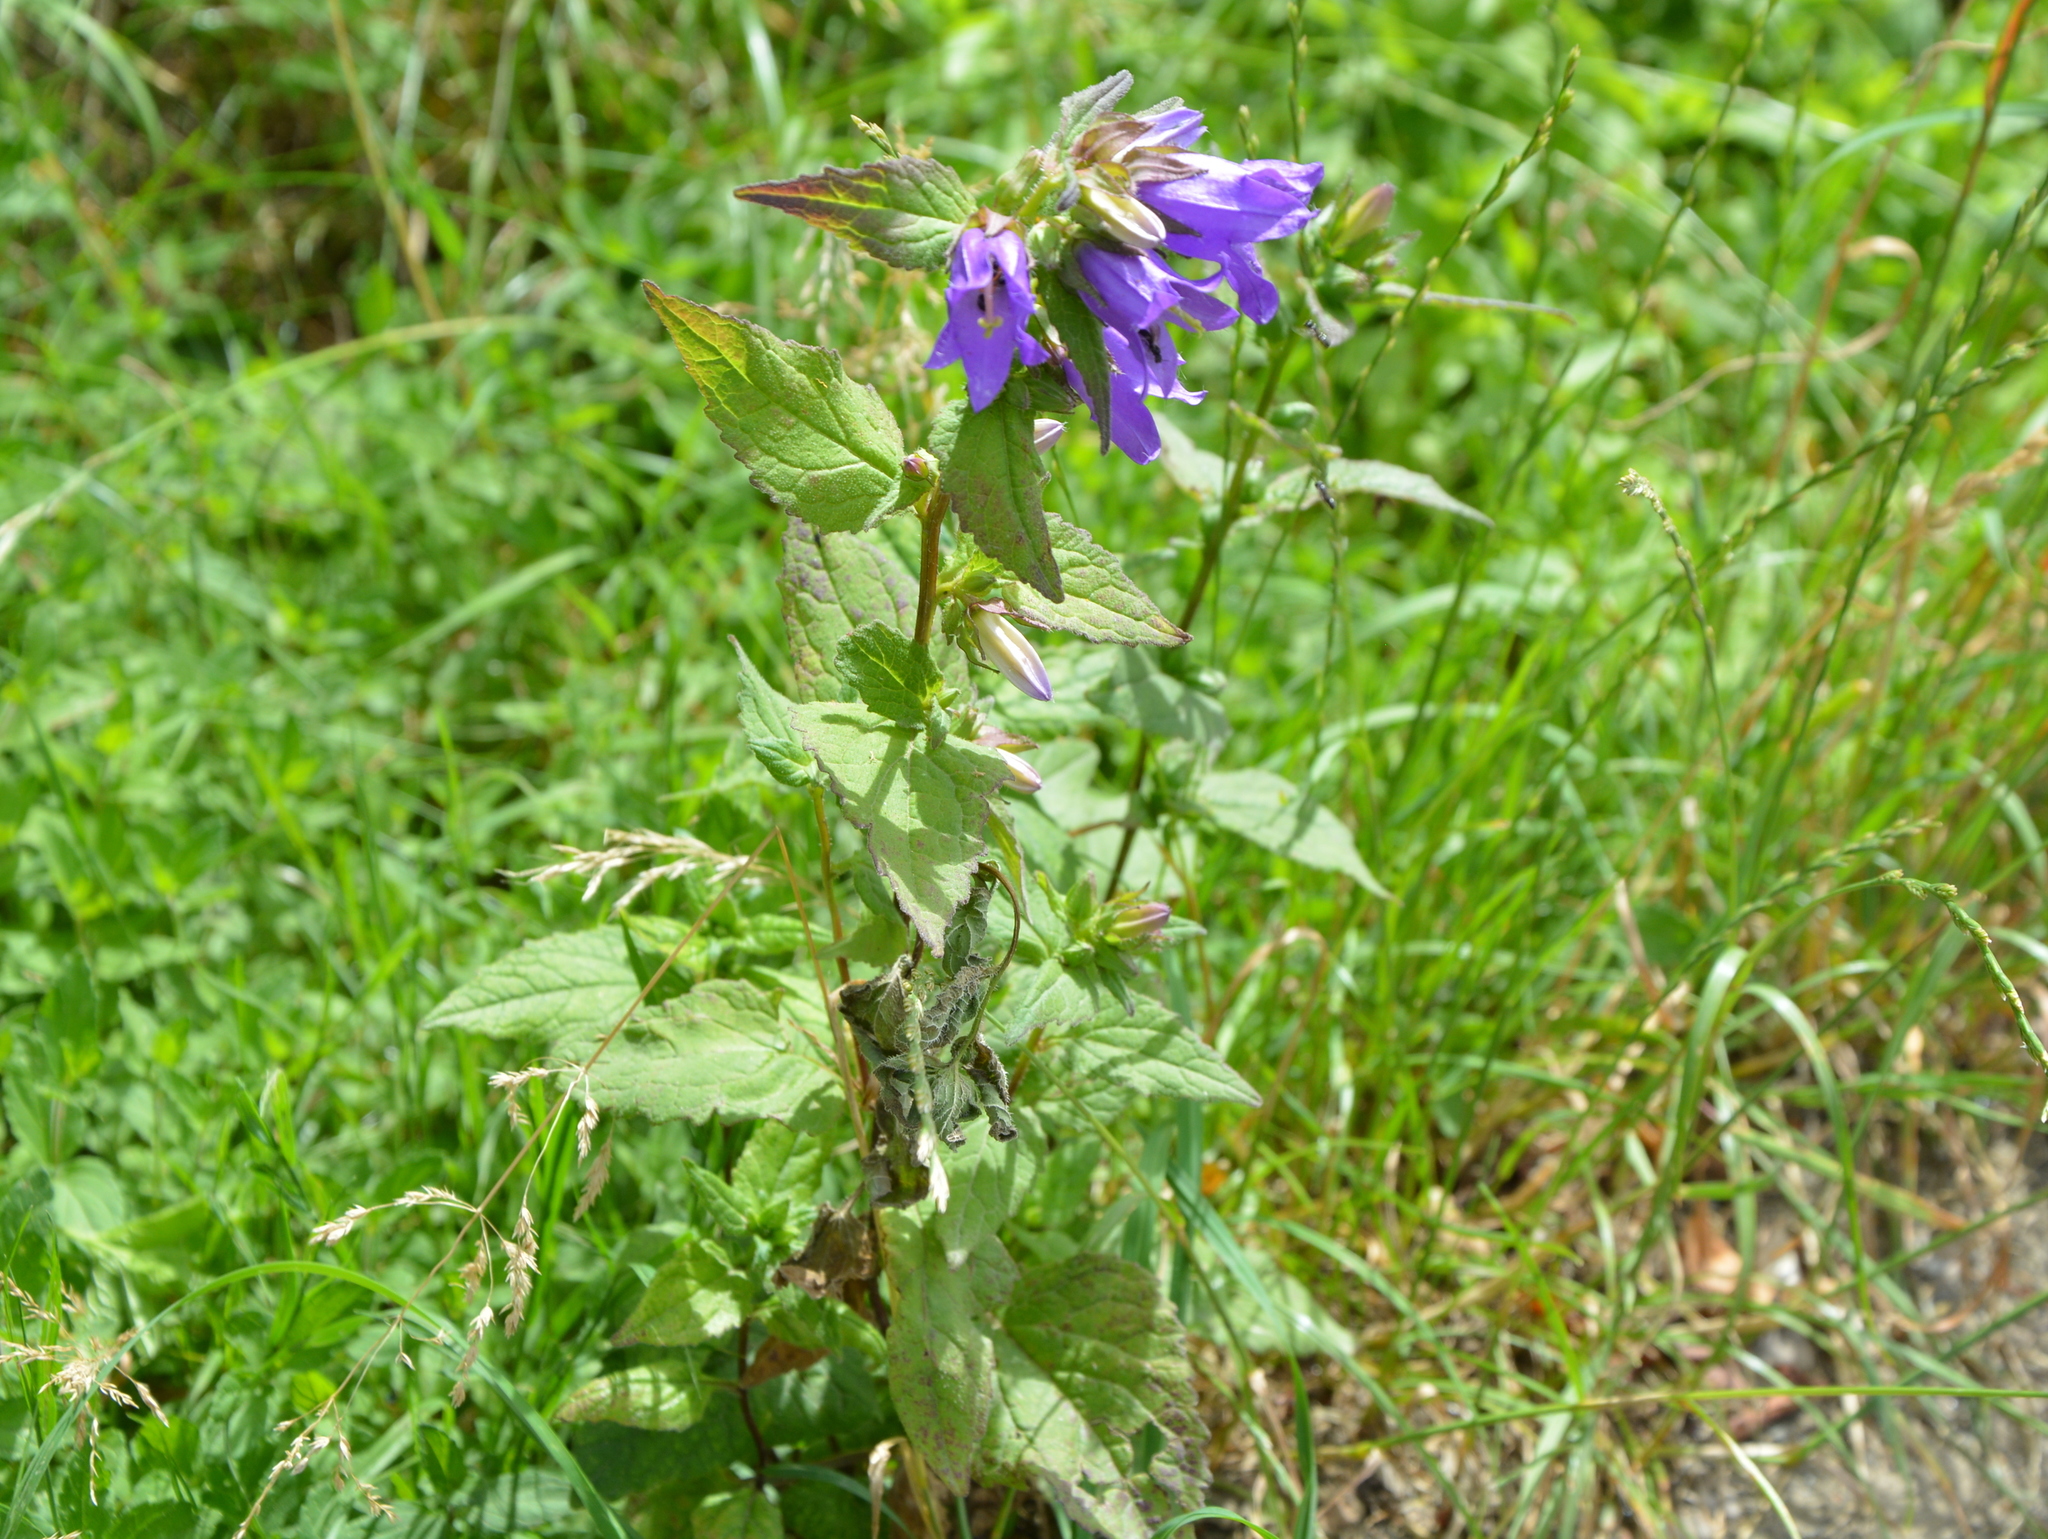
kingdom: Plantae
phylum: Tracheophyta
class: Magnoliopsida
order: Asterales
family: Campanulaceae
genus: Campanula
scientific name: Campanula trachelium
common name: Nettle-leaved bellflower
